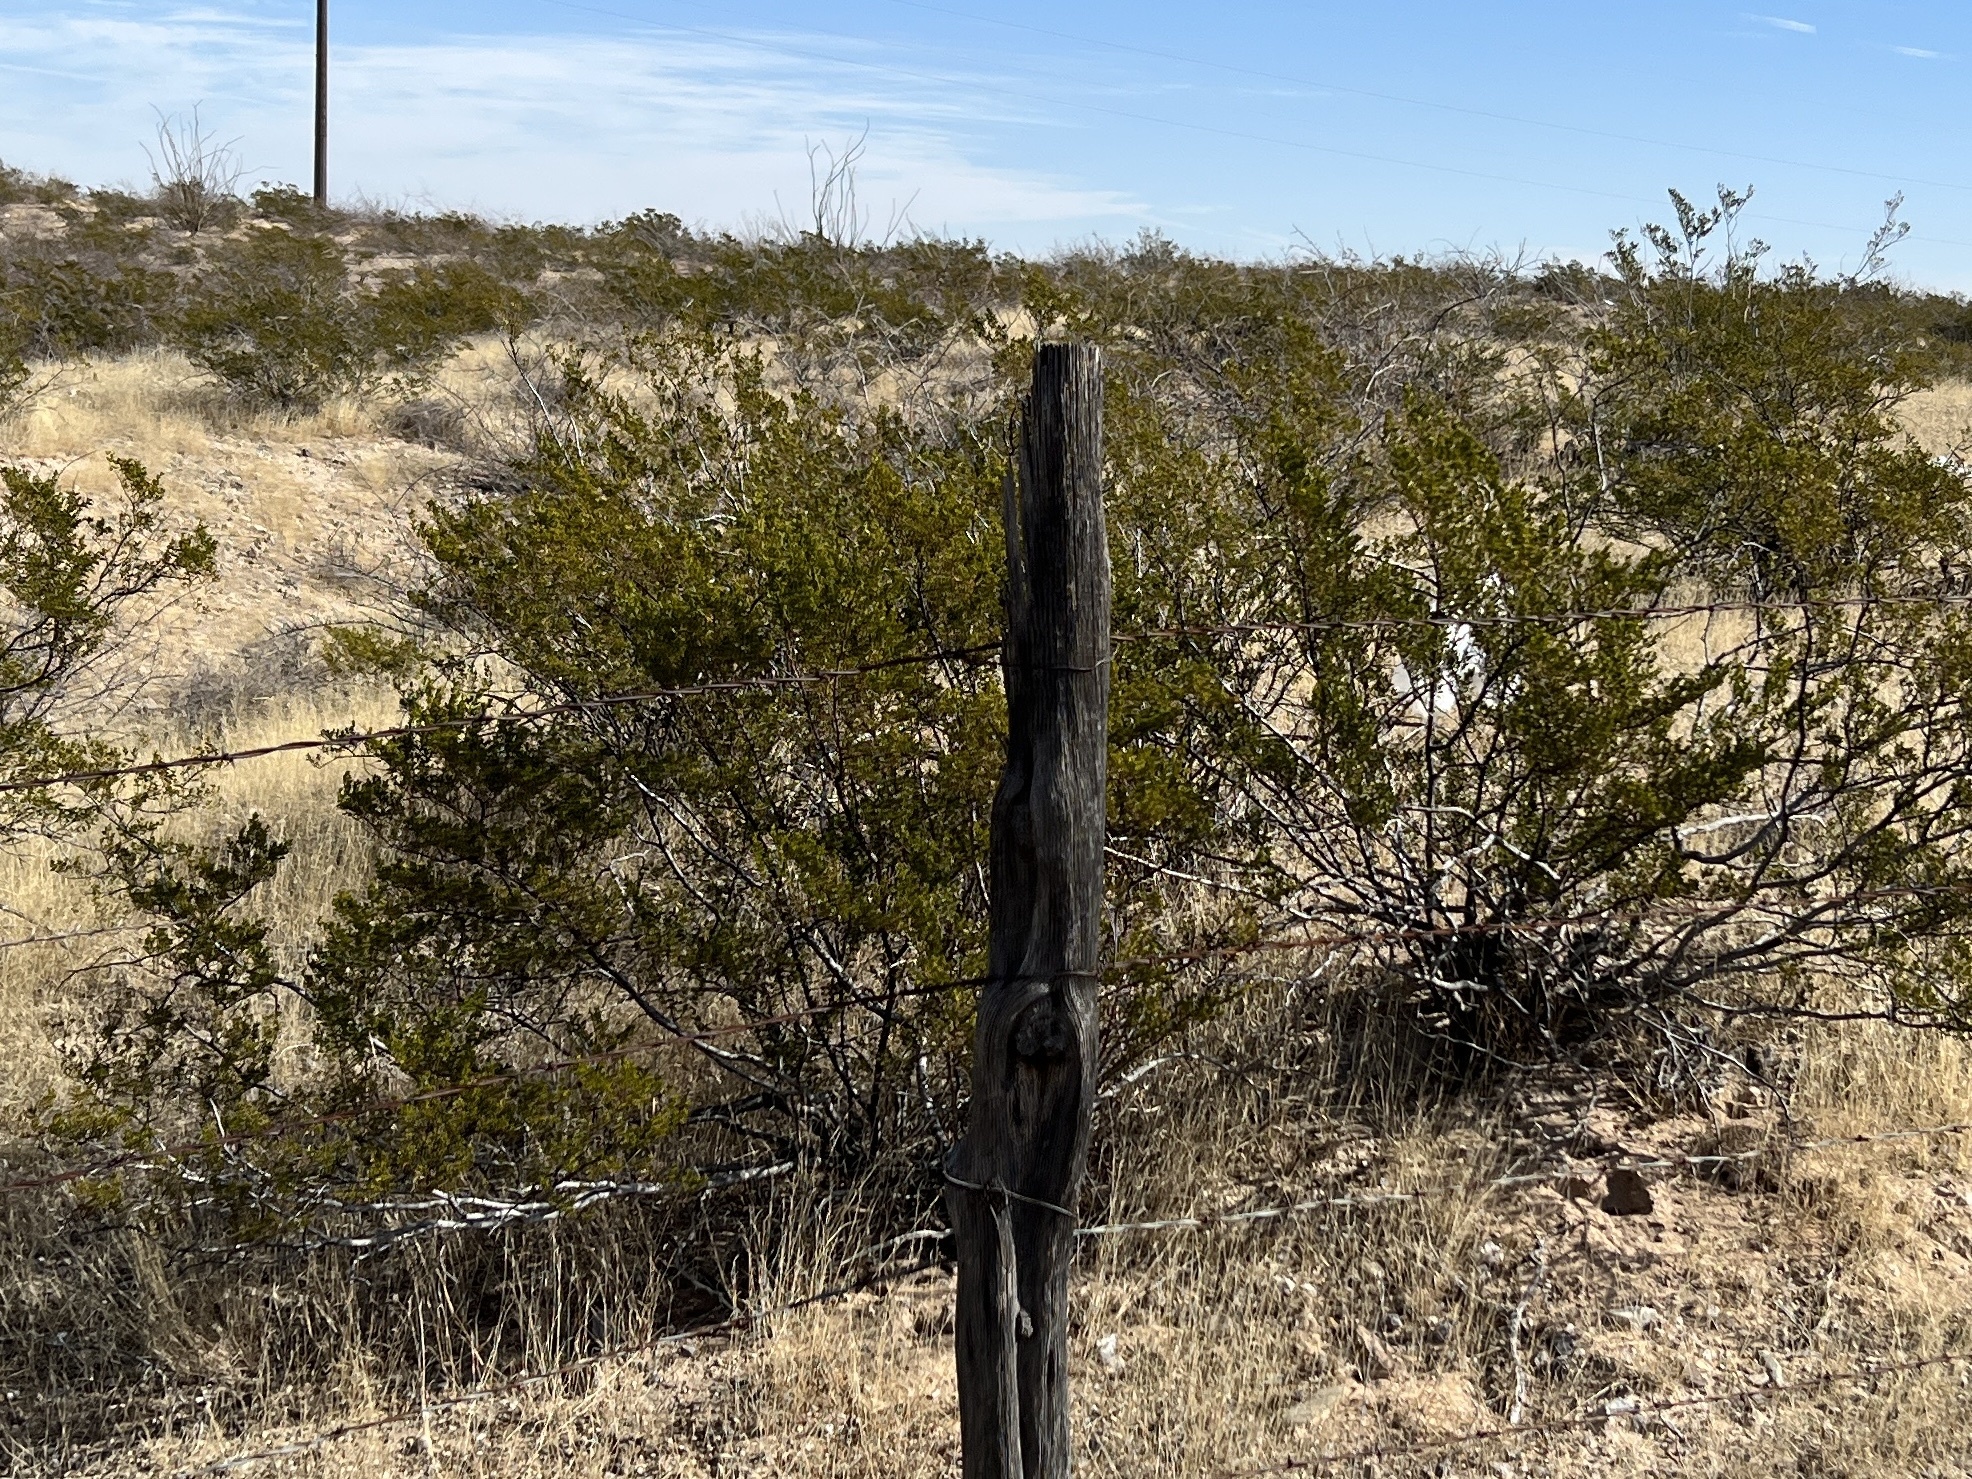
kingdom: Plantae
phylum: Tracheophyta
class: Magnoliopsida
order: Zygophyllales
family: Zygophyllaceae
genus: Larrea
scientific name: Larrea tridentata
